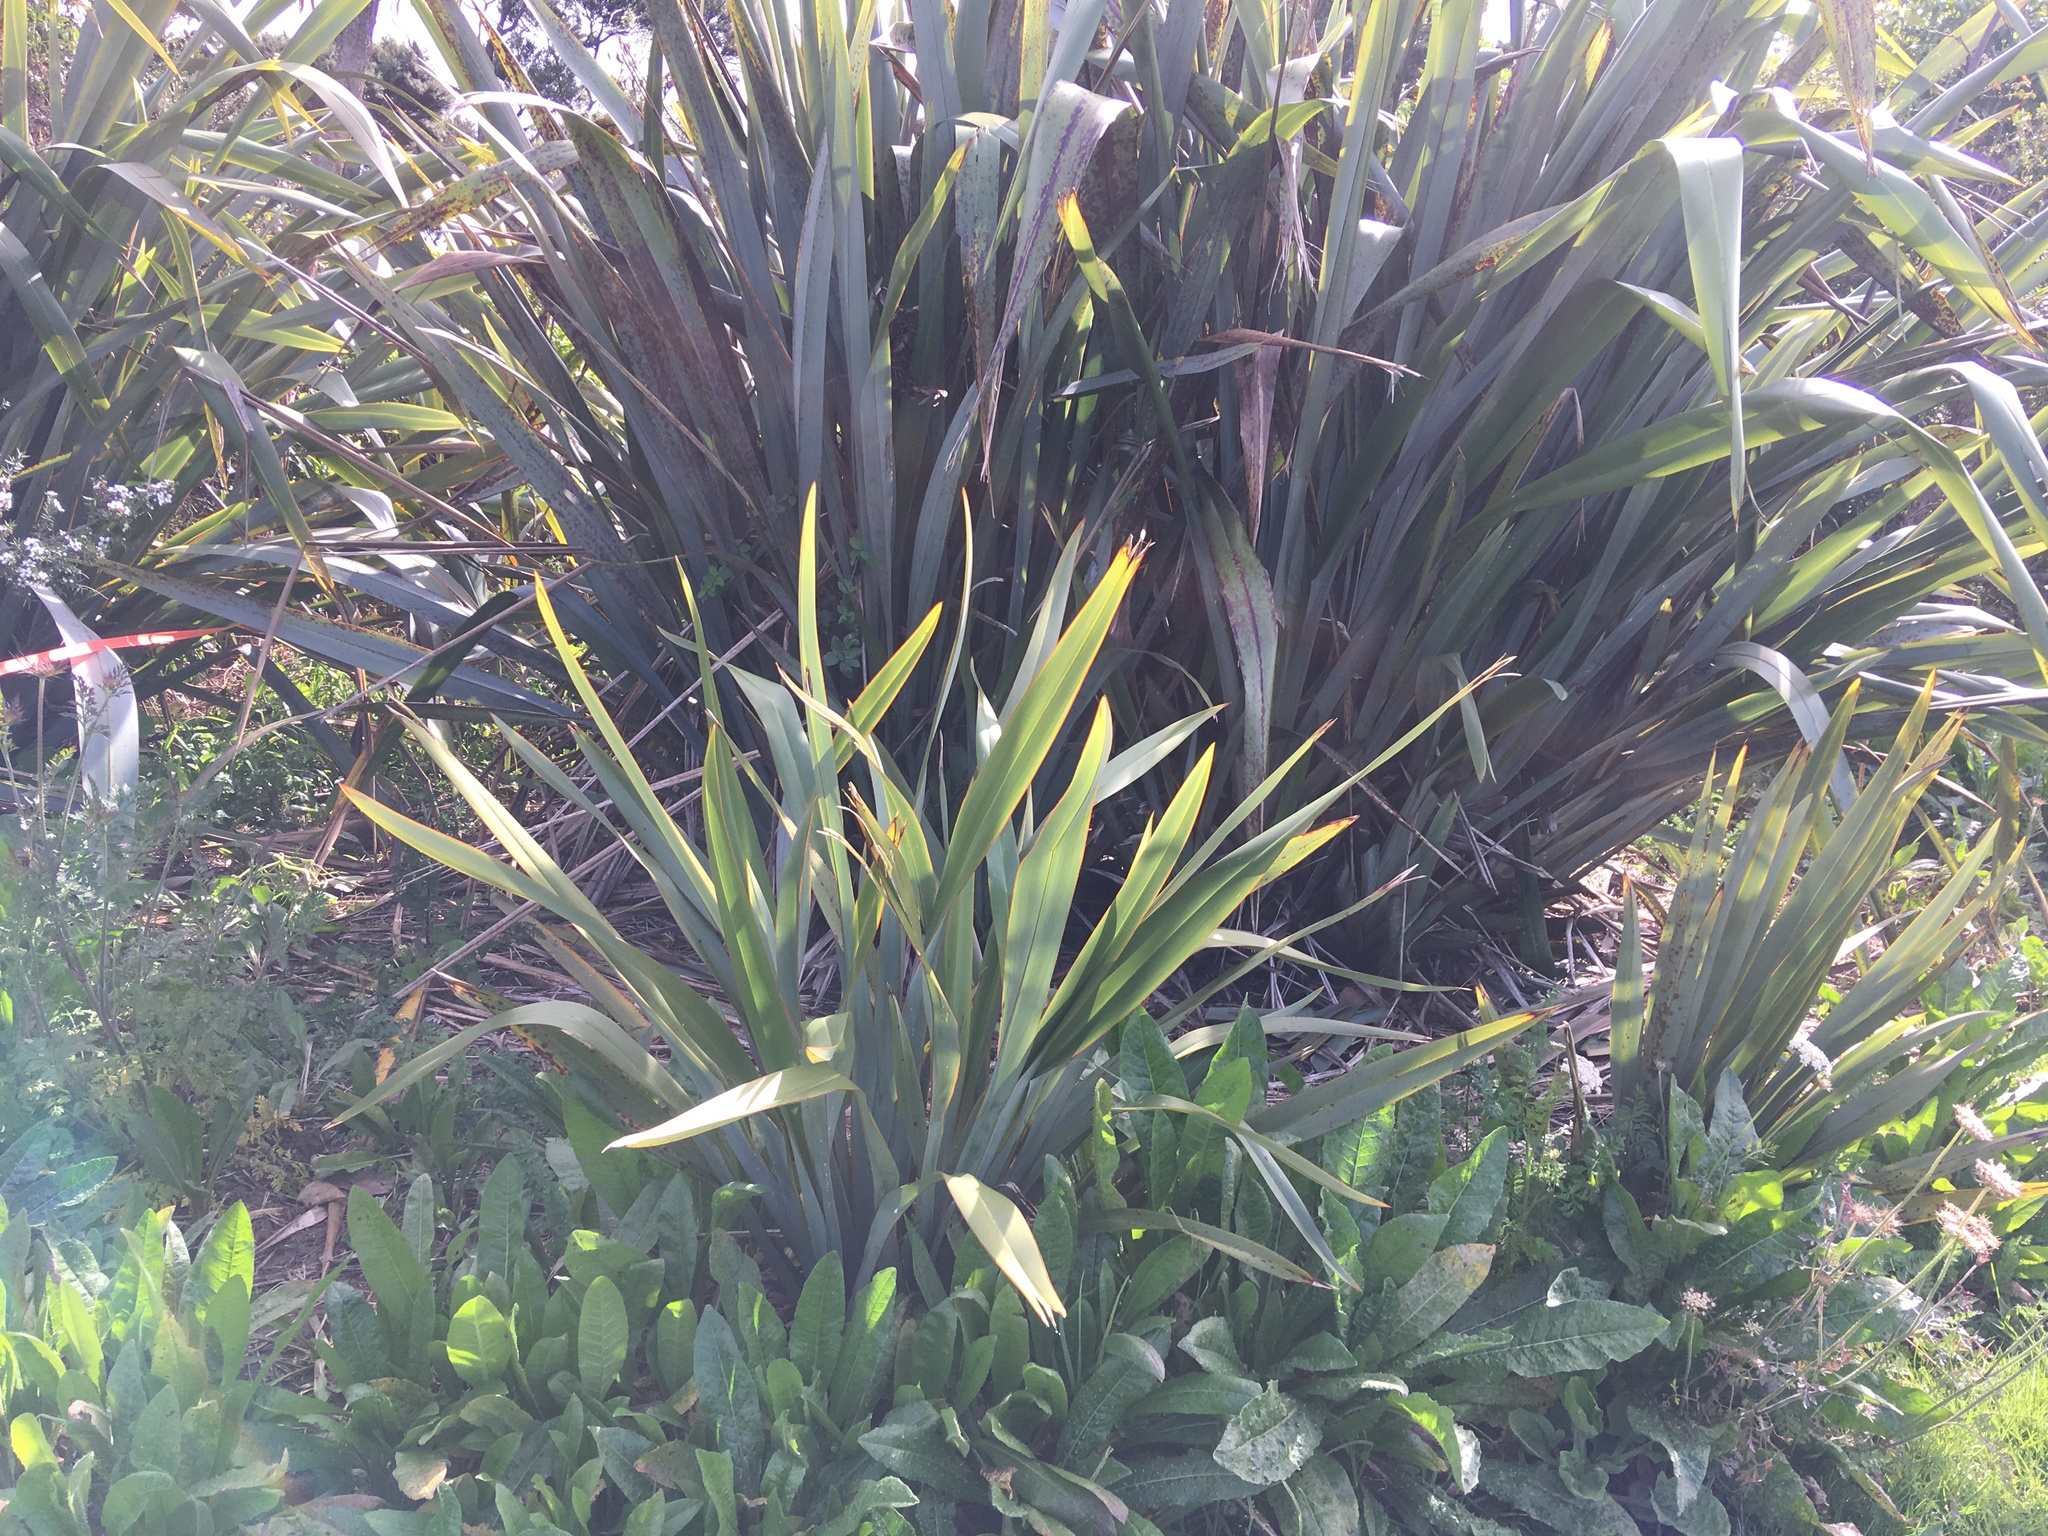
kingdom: Plantae
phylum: Tracheophyta
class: Magnoliopsida
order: Asterales
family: Asteraceae
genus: Helminthotheca
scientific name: Helminthotheca echioides
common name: Ox-tongue
